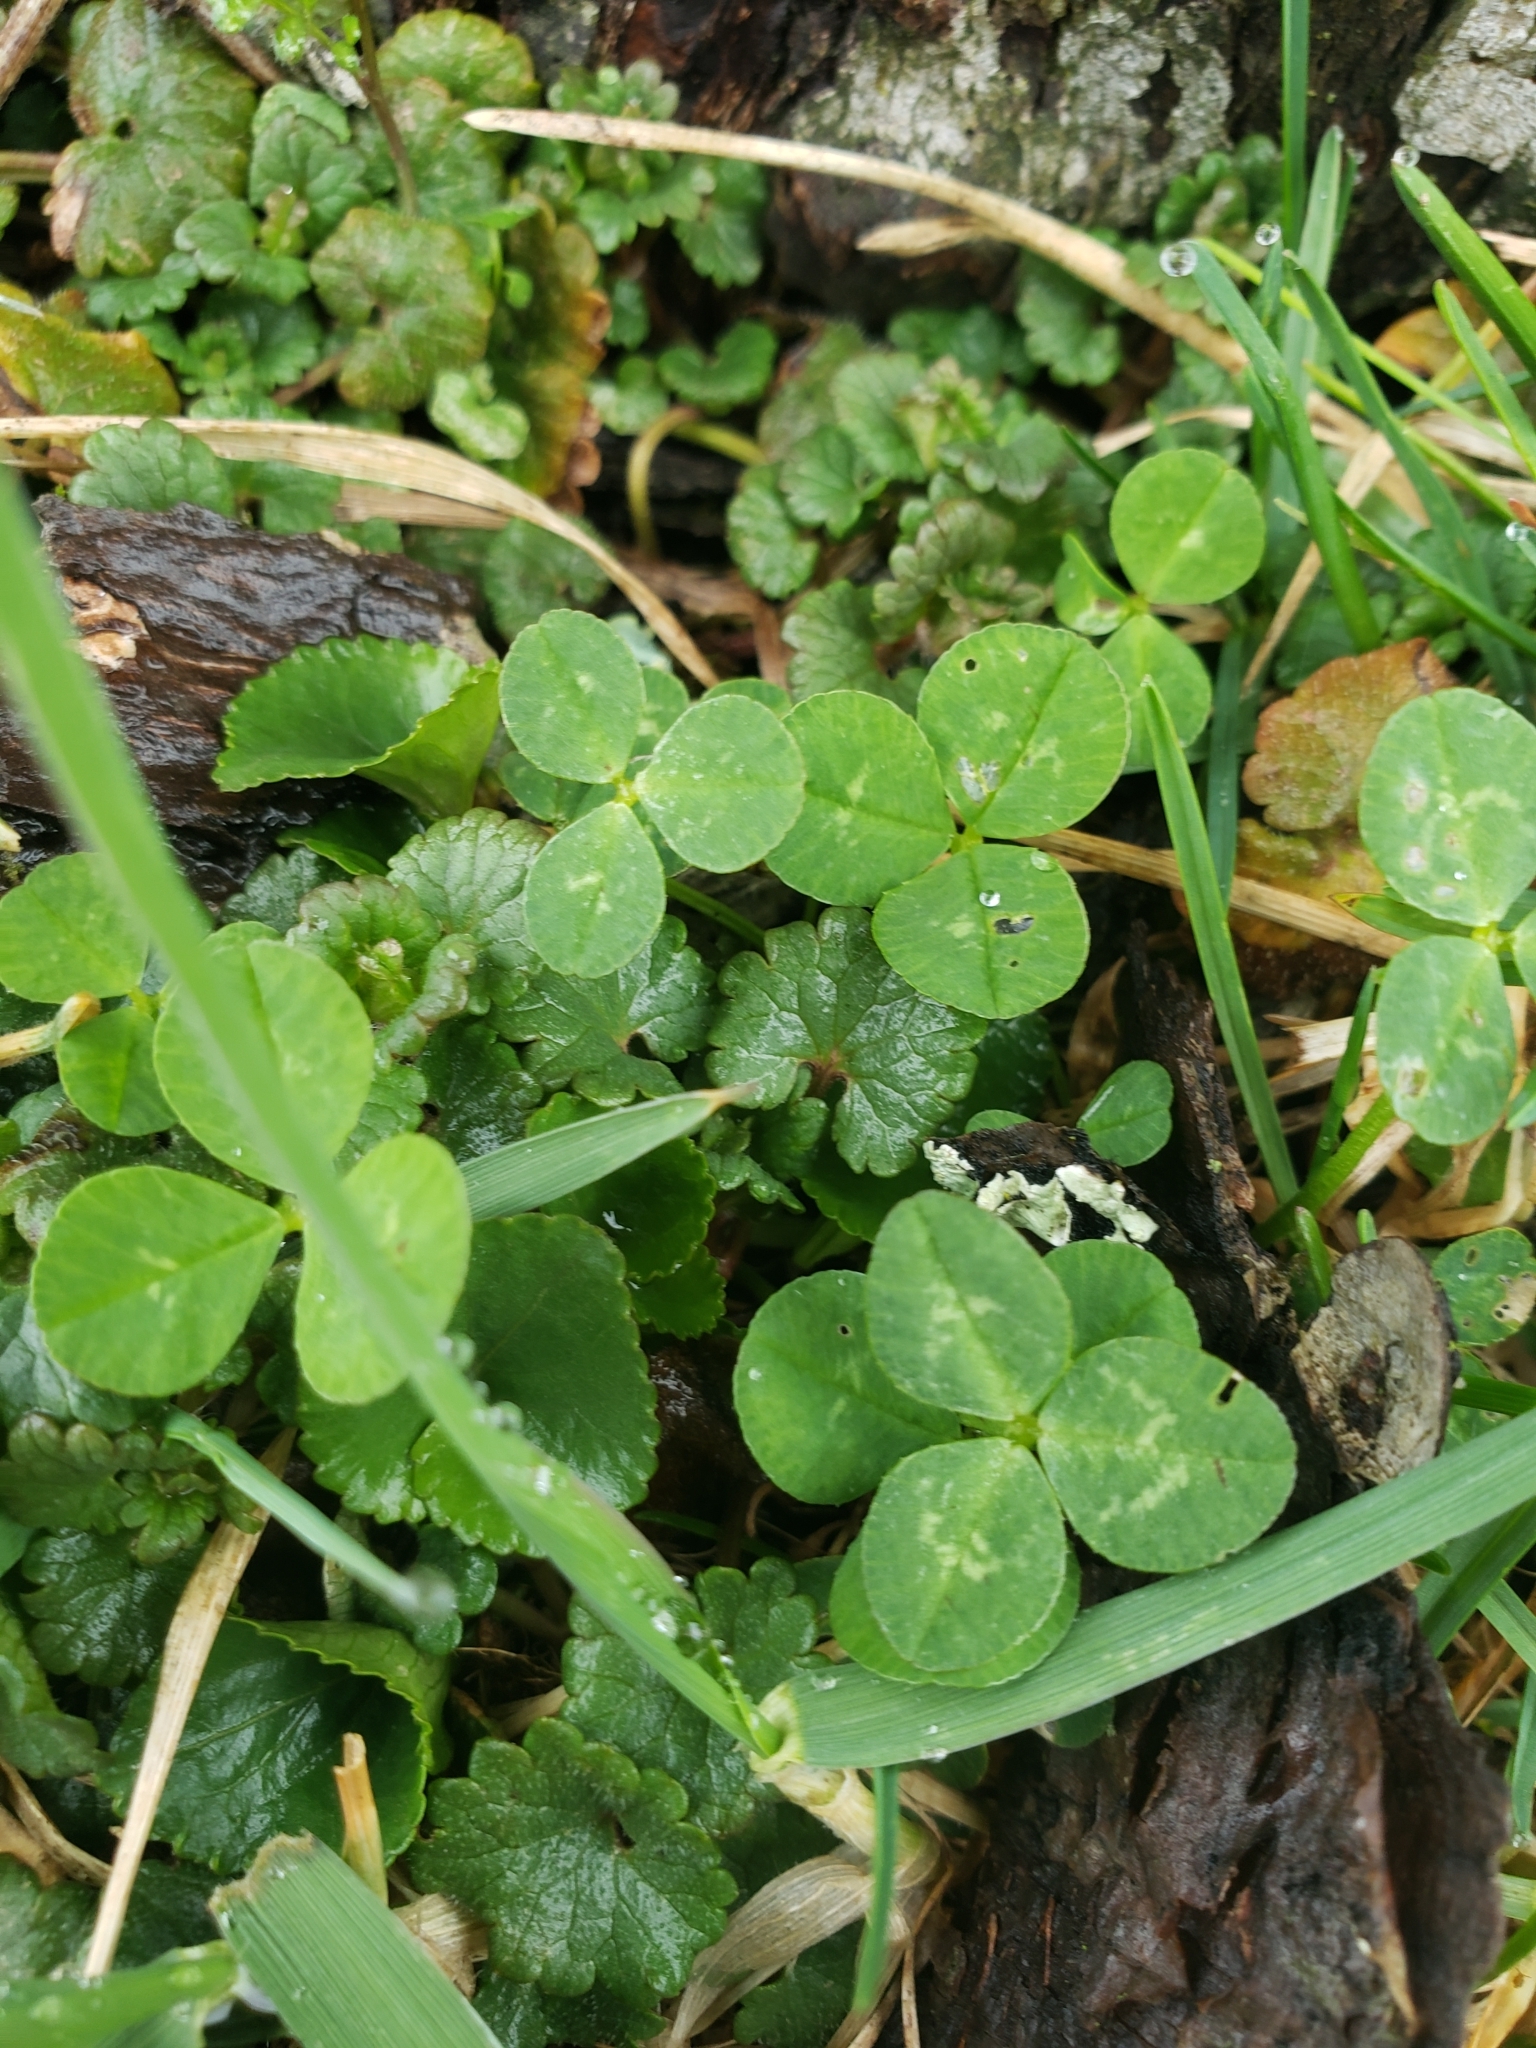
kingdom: Plantae
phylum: Tracheophyta
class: Magnoliopsida
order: Fabales
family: Fabaceae
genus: Trifolium
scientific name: Trifolium repens
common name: White clover
